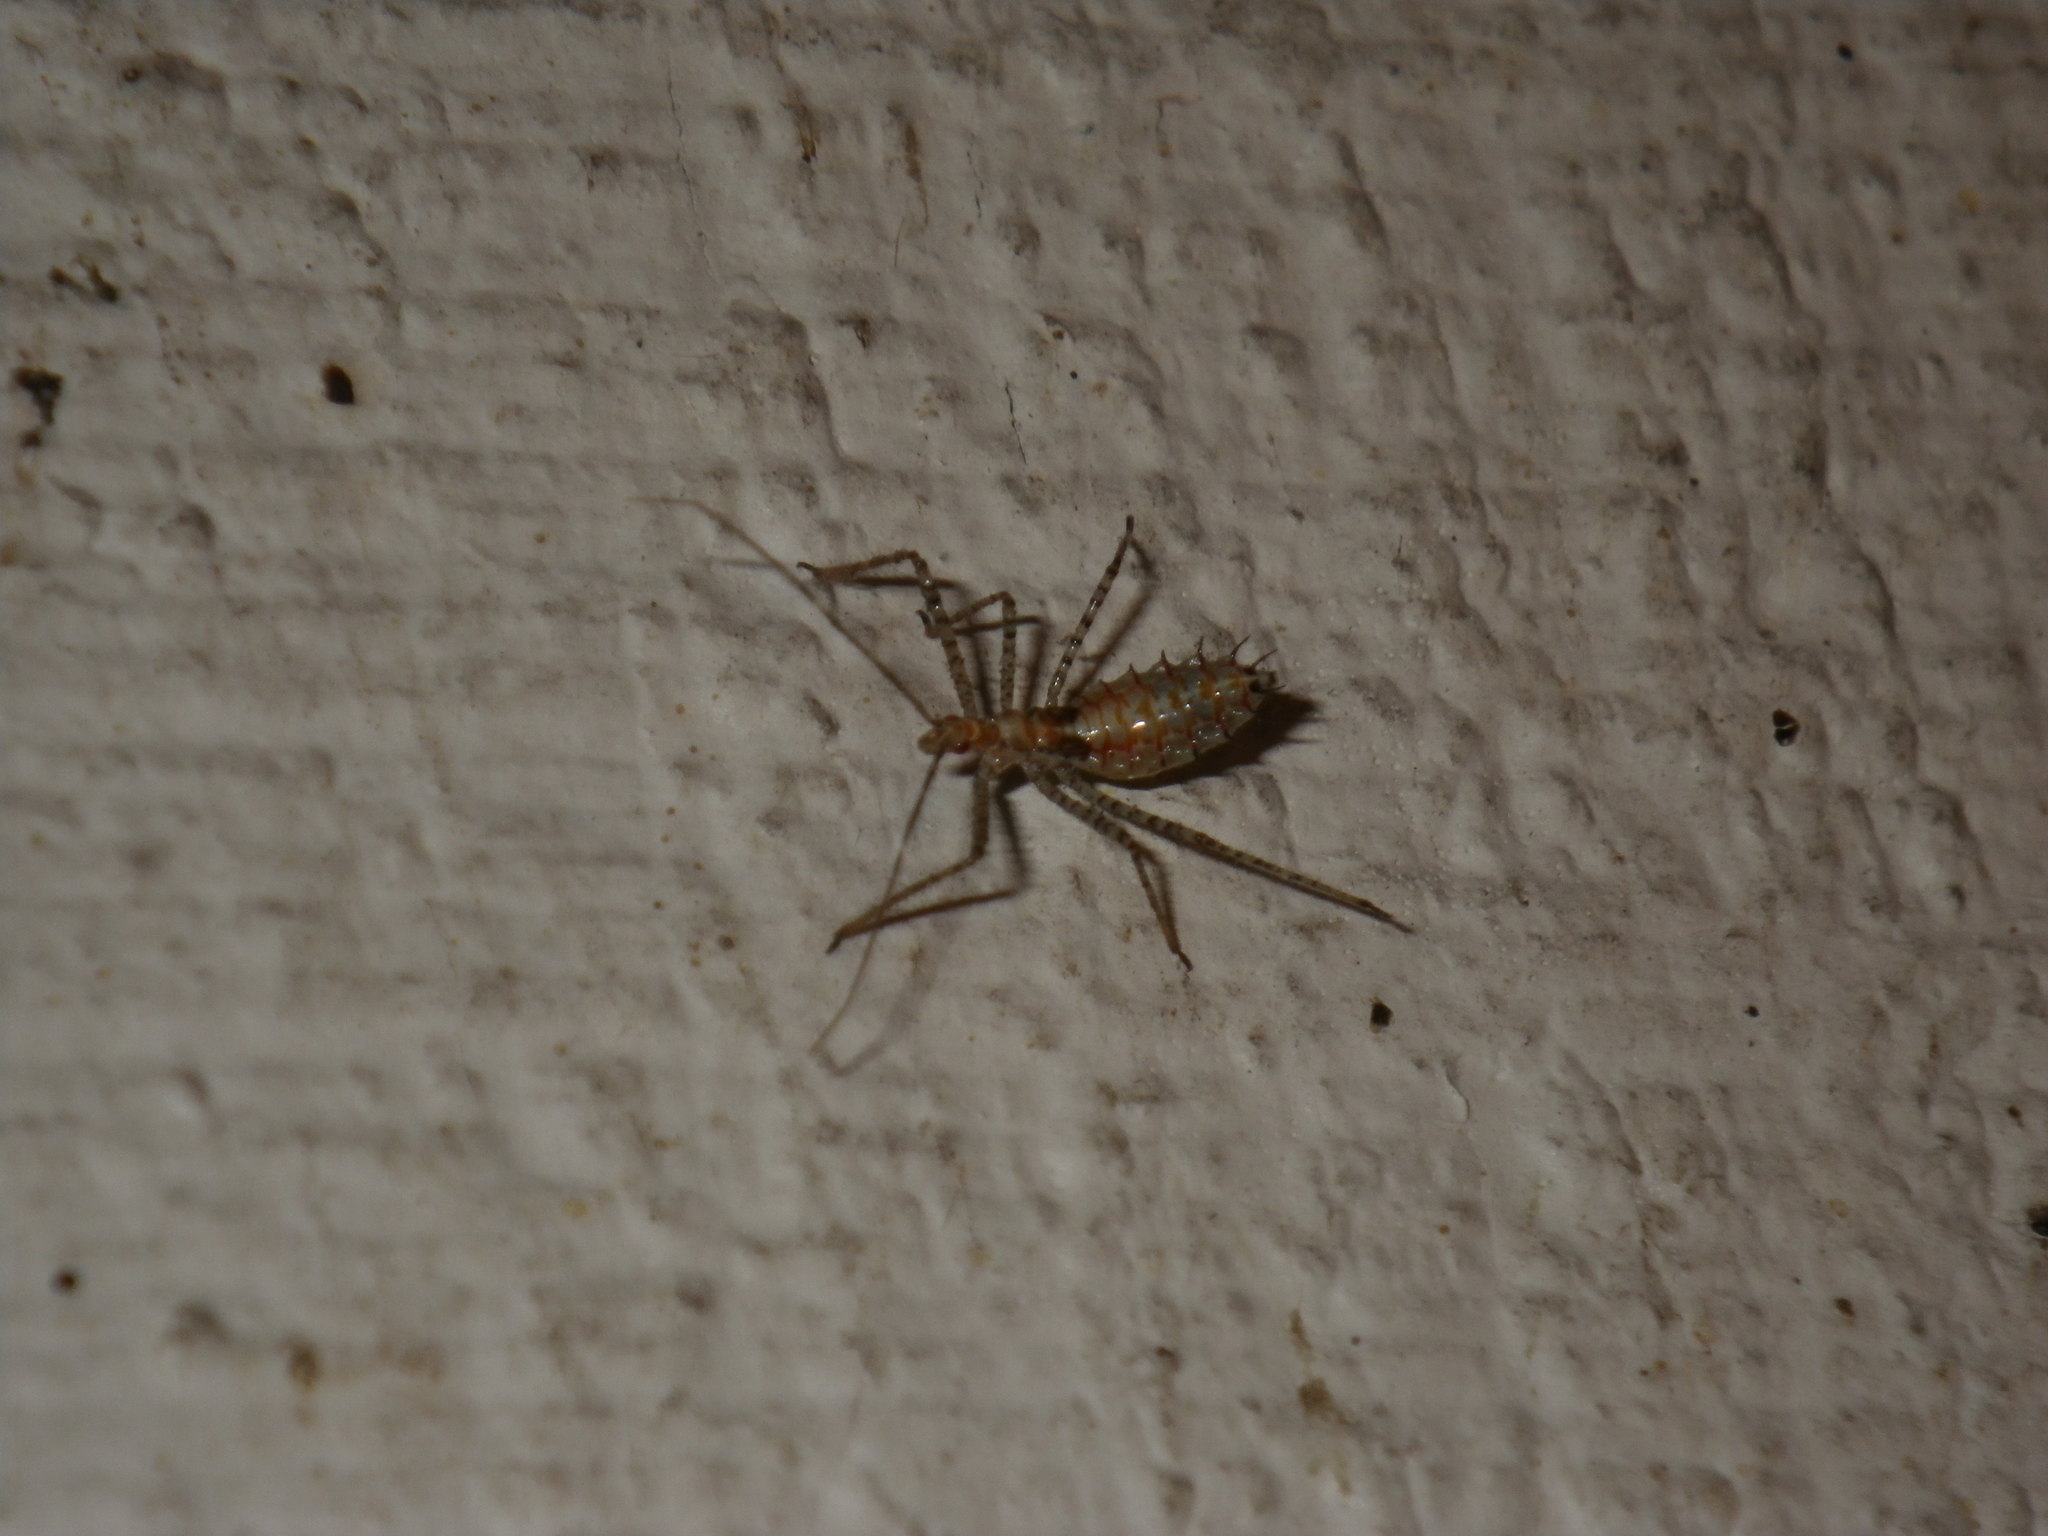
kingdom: Animalia
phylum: Arthropoda
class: Insecta
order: Hemiptera
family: Reduviidae
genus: Zelus
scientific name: Zelus renardii
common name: Assassin bug
